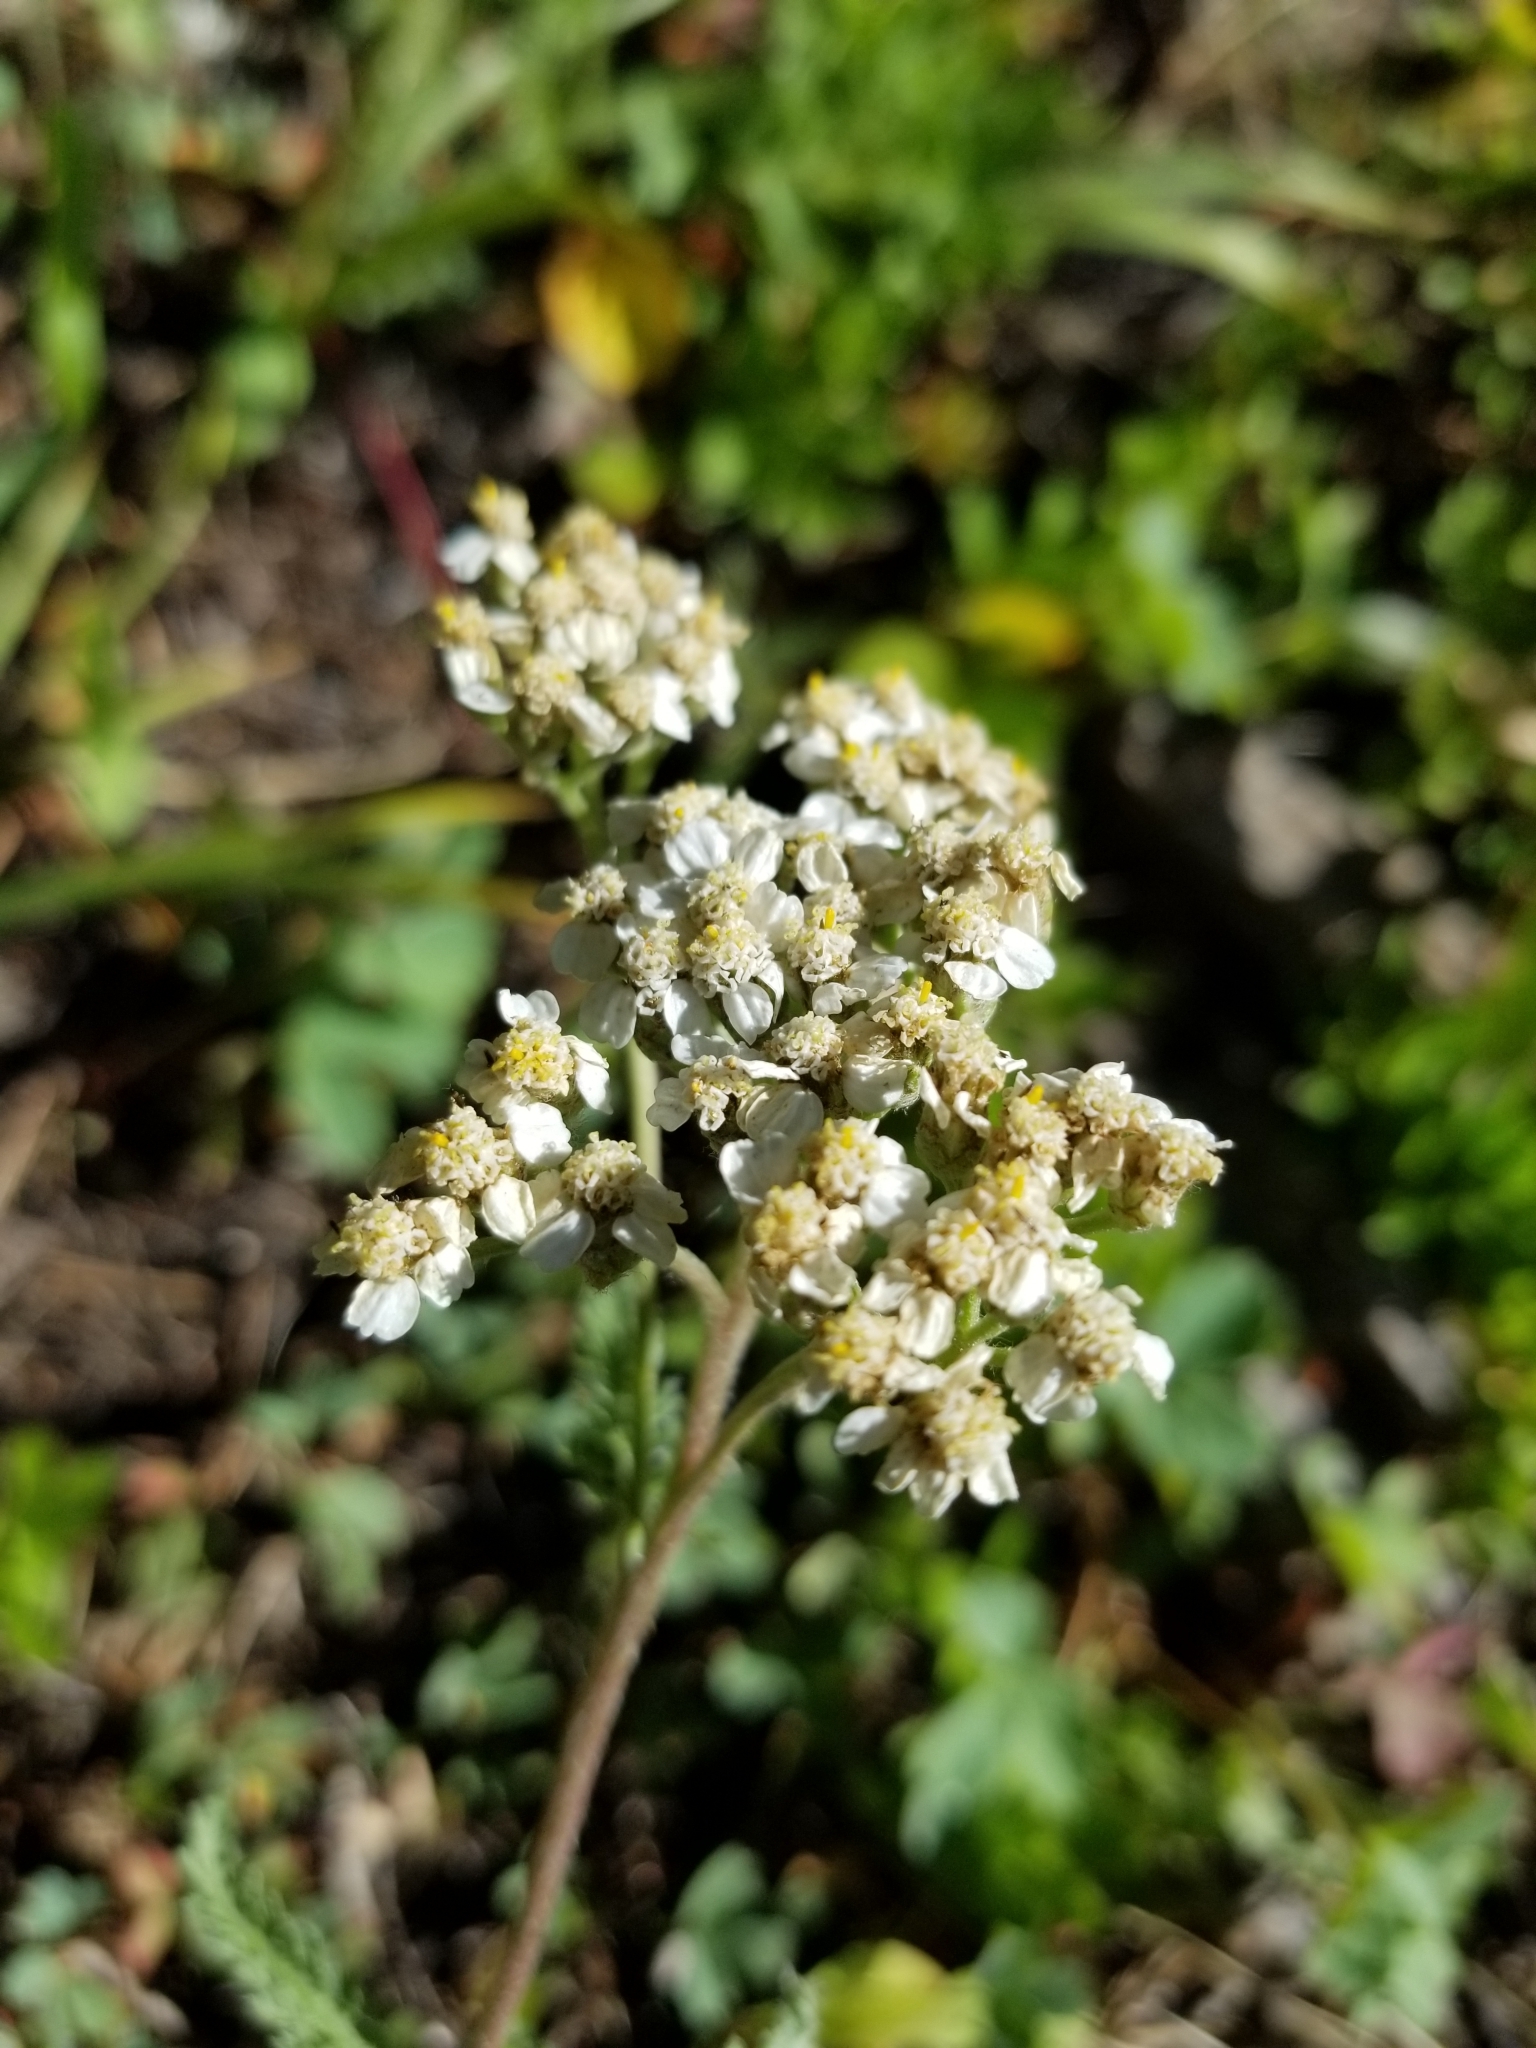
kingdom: Plantae
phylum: Tracheophyta
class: Magnoliopsida
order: Asterales
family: Asteraceae
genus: Achillea
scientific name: Achillea millefolium
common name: Yarrow
